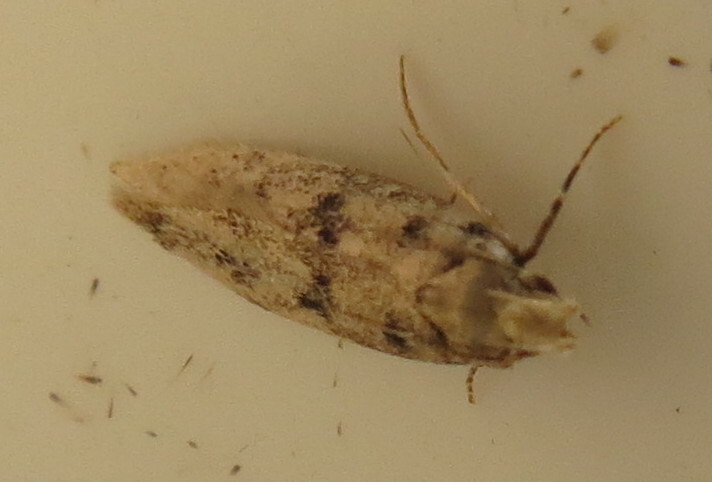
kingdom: Animalia
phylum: Arthropoda
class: Insecta
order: Lepidoptera
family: Gelechiidae
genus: Bryotropha
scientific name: Bryotropha domestica
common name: House groundling
